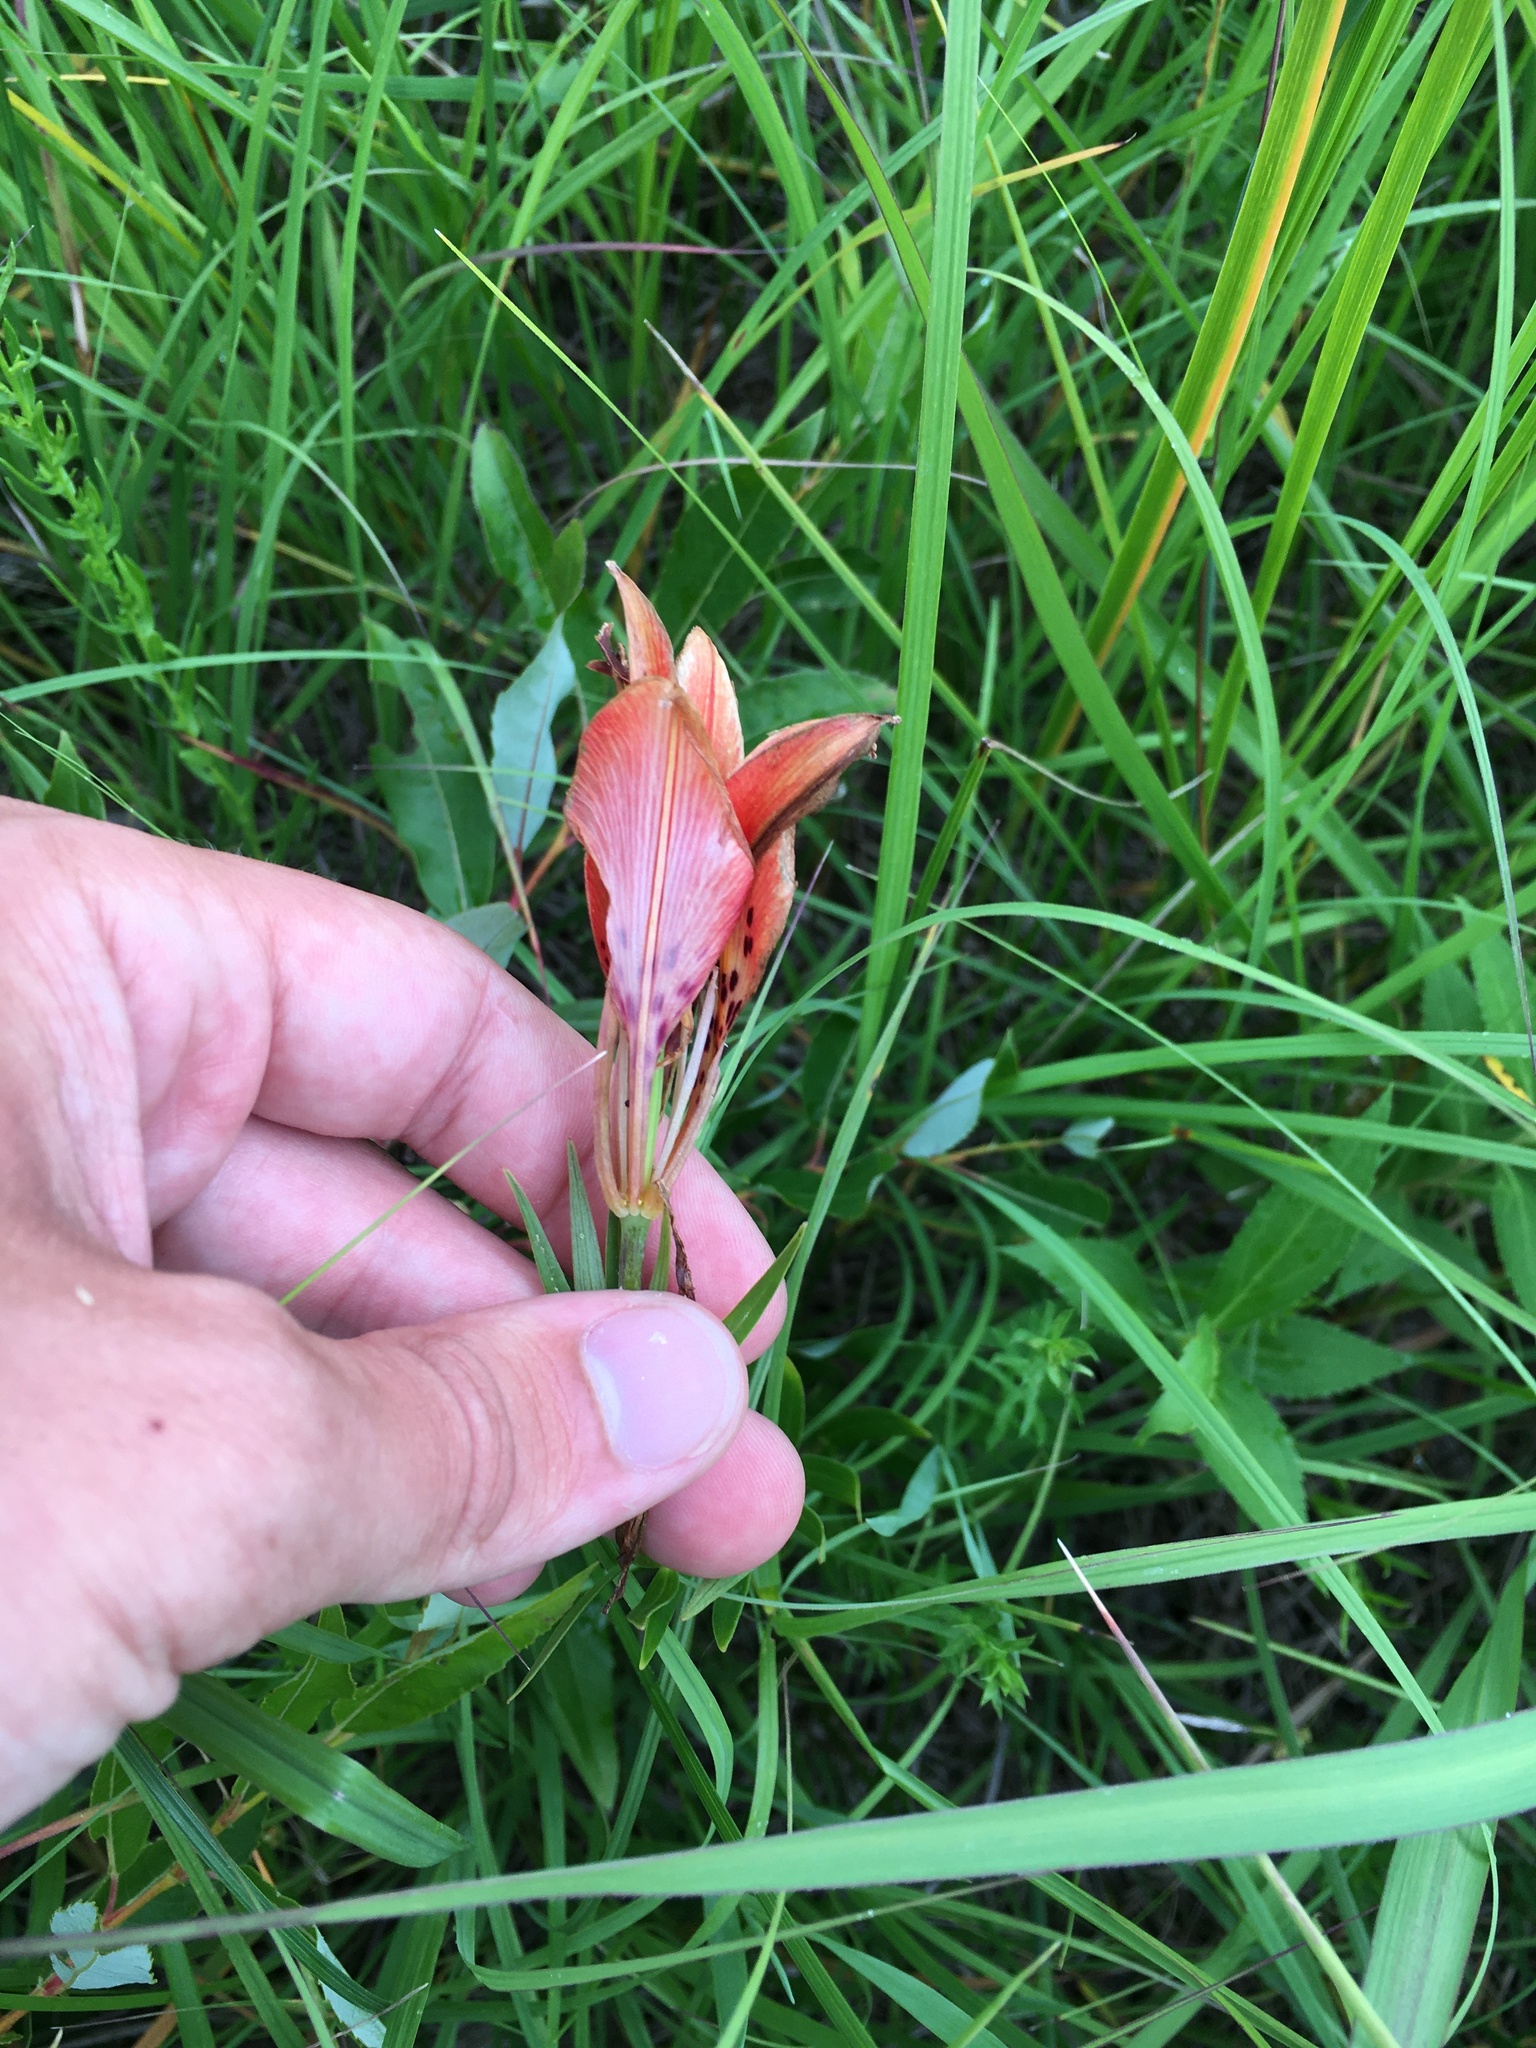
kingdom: Plantae
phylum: Tracheophyta
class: Liliopsida
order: Liliales
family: Liliaceae
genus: Lilium
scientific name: Lilium philadelphicum
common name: Red lily
